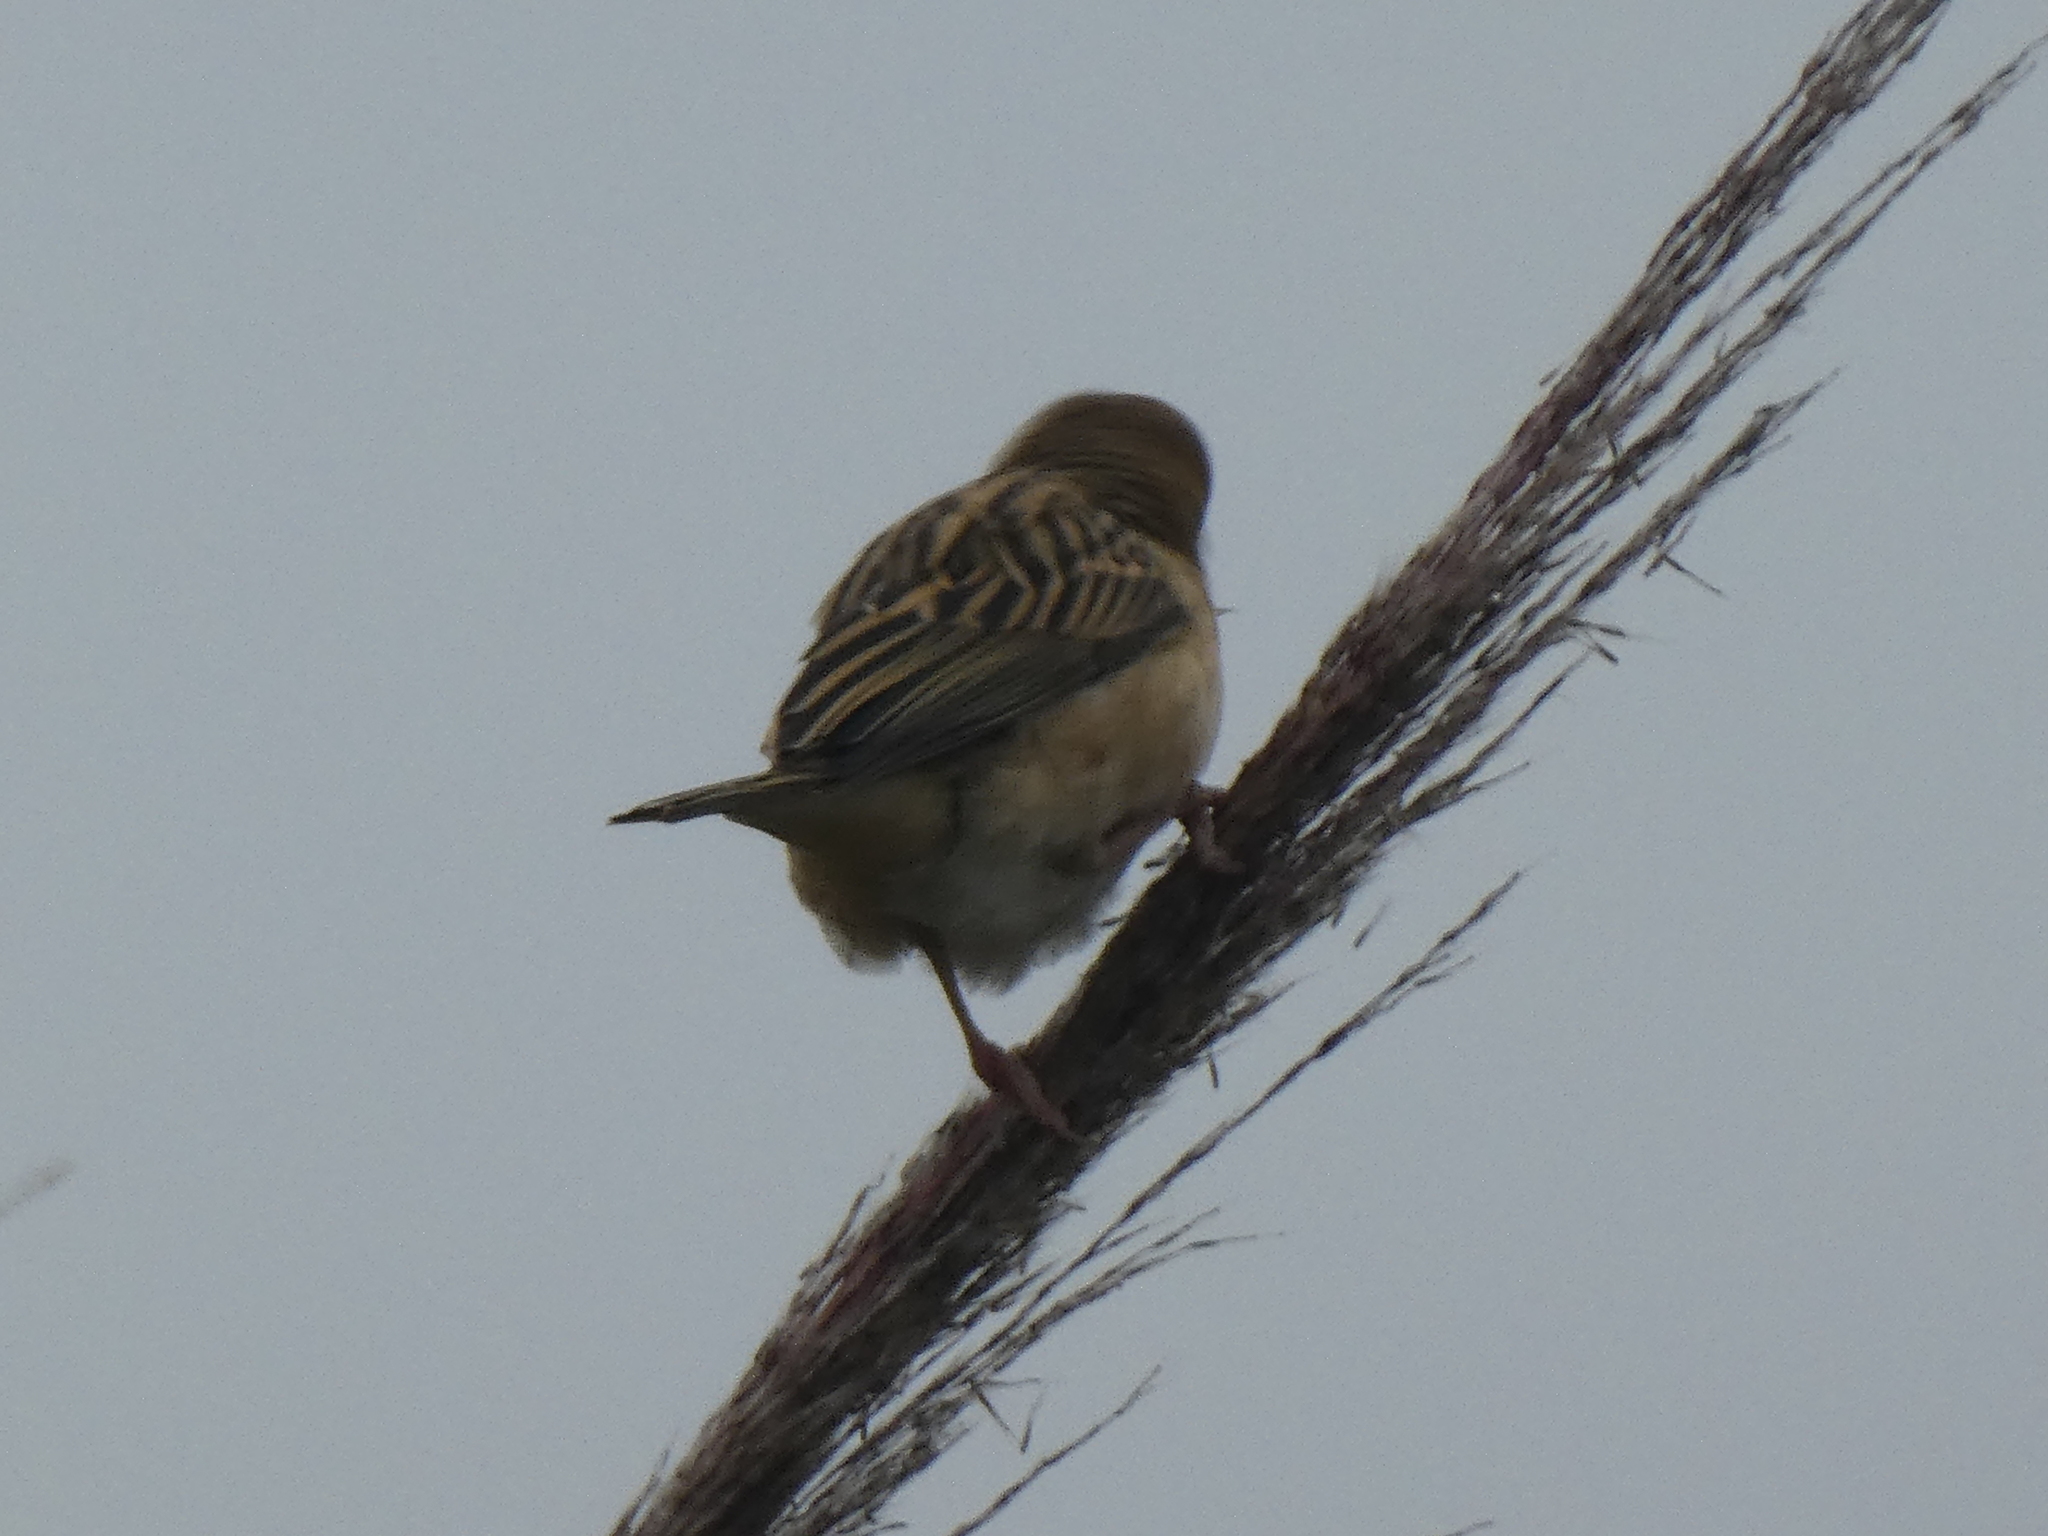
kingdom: Animalia
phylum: Chordata
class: Aves
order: Passeriformes
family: Ploceidae
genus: Ploceus
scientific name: Ploceus philippinus
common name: Baya weaver
